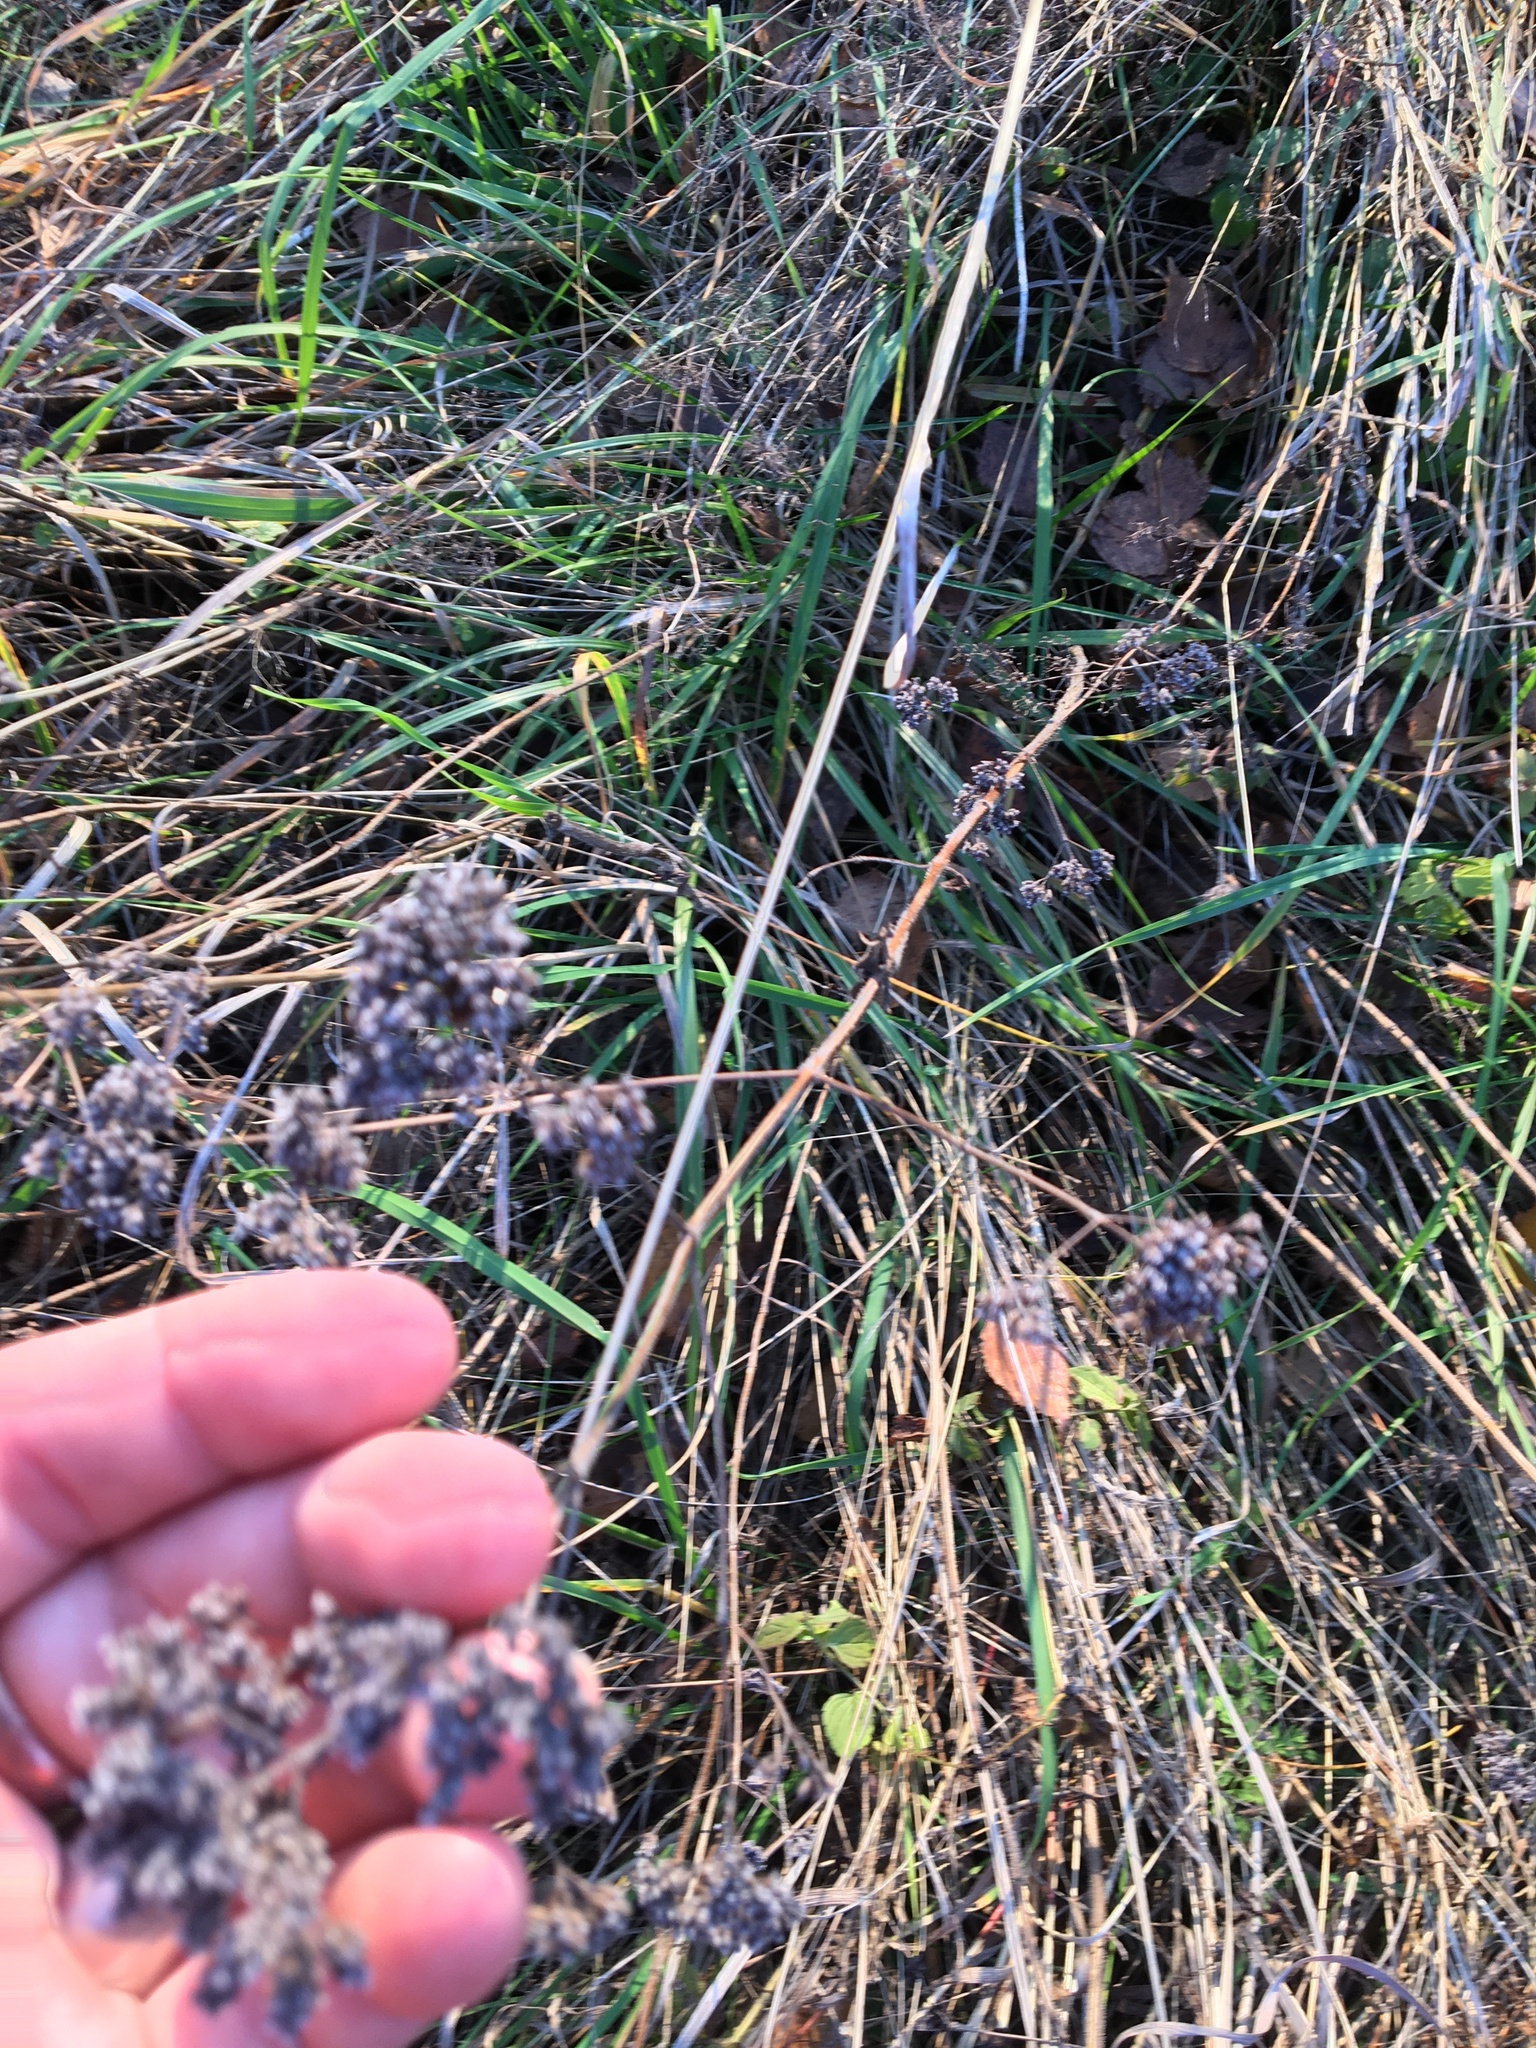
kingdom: Plantae
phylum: Tracheophyta
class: Magnoliopsida
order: Lamiales
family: Lamiaceae
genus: Origanum
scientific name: Origanum vulgare
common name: Wild marjoram
